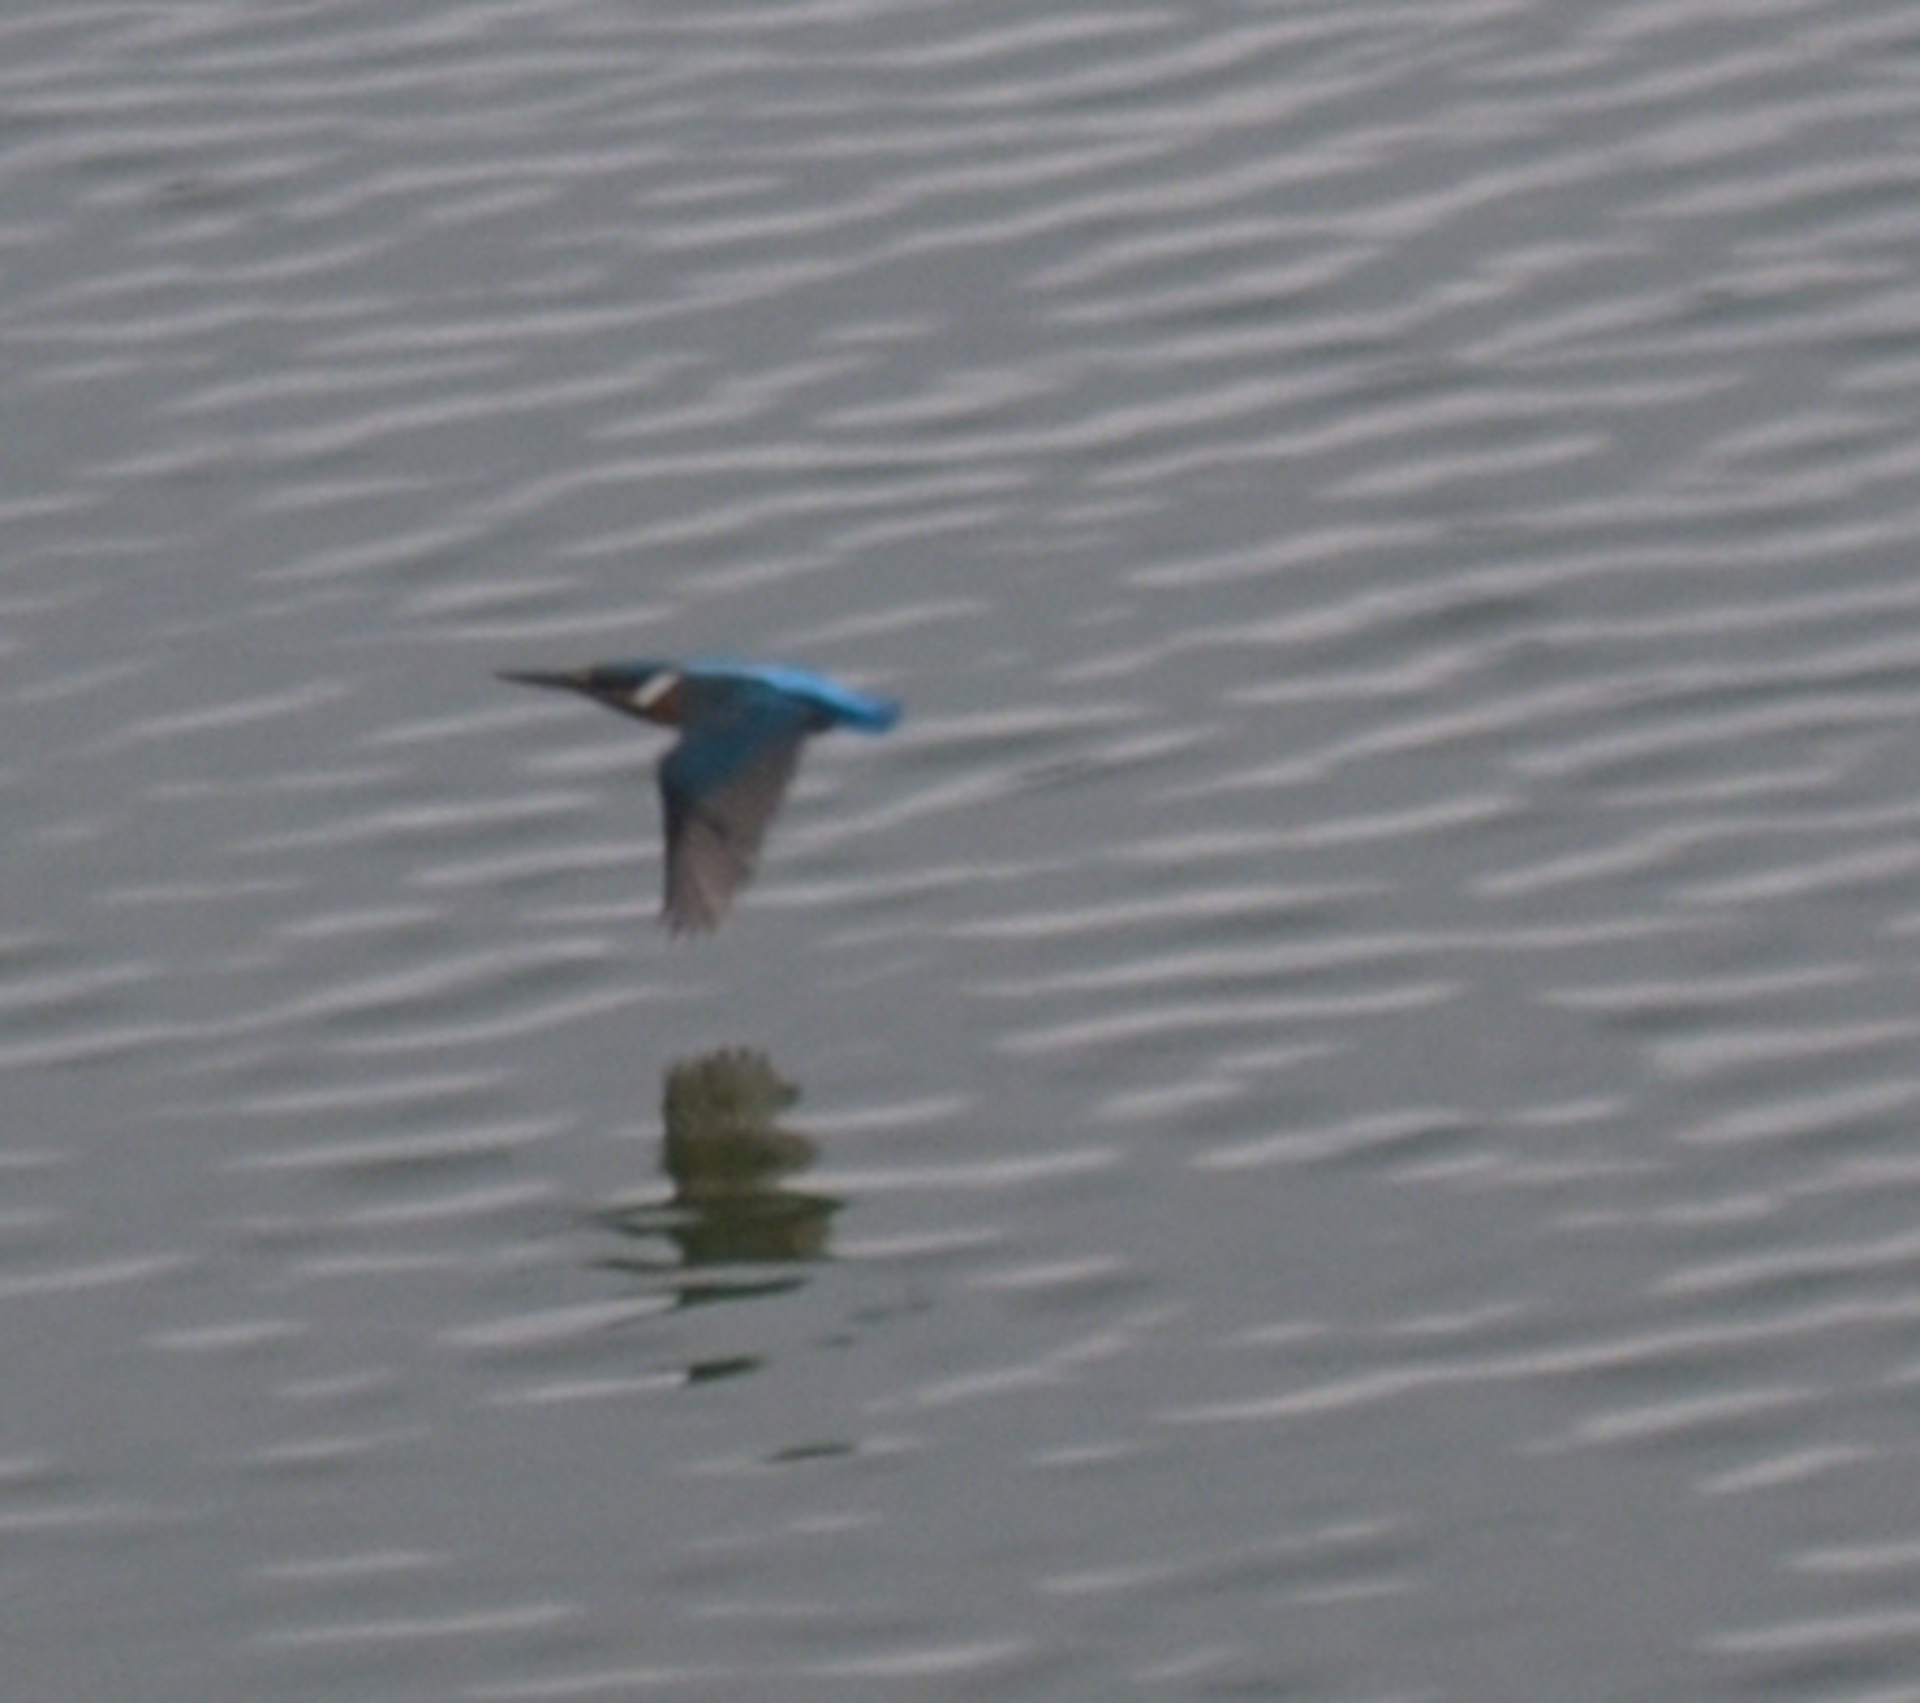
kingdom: Animalia
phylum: Chordata
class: Aves
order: Coraciiformes
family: Alcedinidae
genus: Alcedo
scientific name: Alcedo atthis
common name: Common kingfisher
